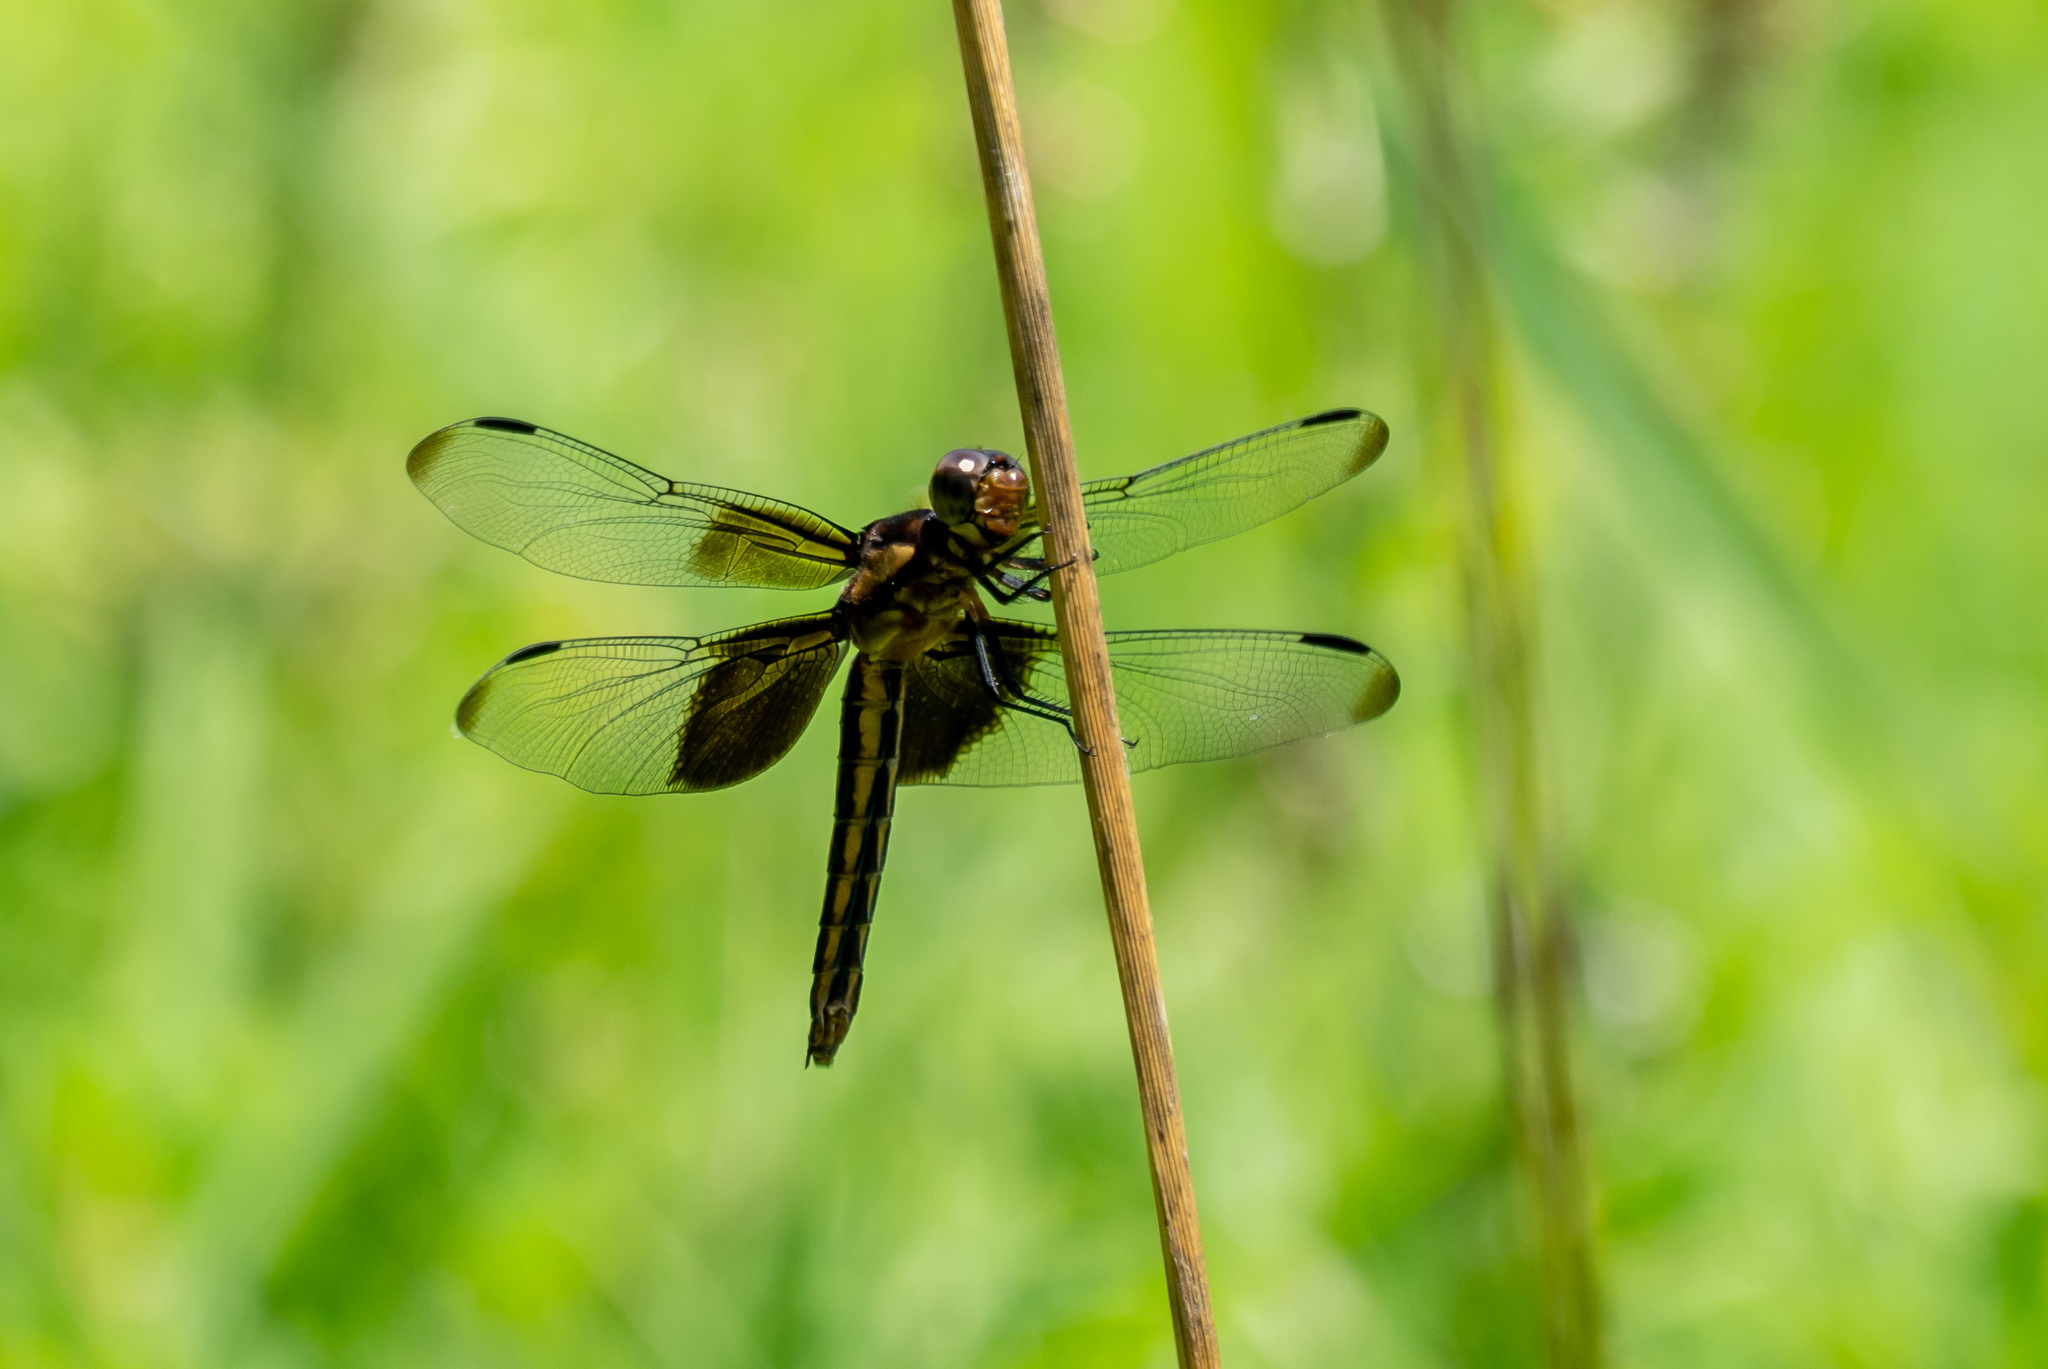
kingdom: Animalia
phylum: Arthropoda
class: Insecta
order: Odonata
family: Libellulidae
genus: Libellula
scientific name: Libellula luctuosa
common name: Widow skimmer
